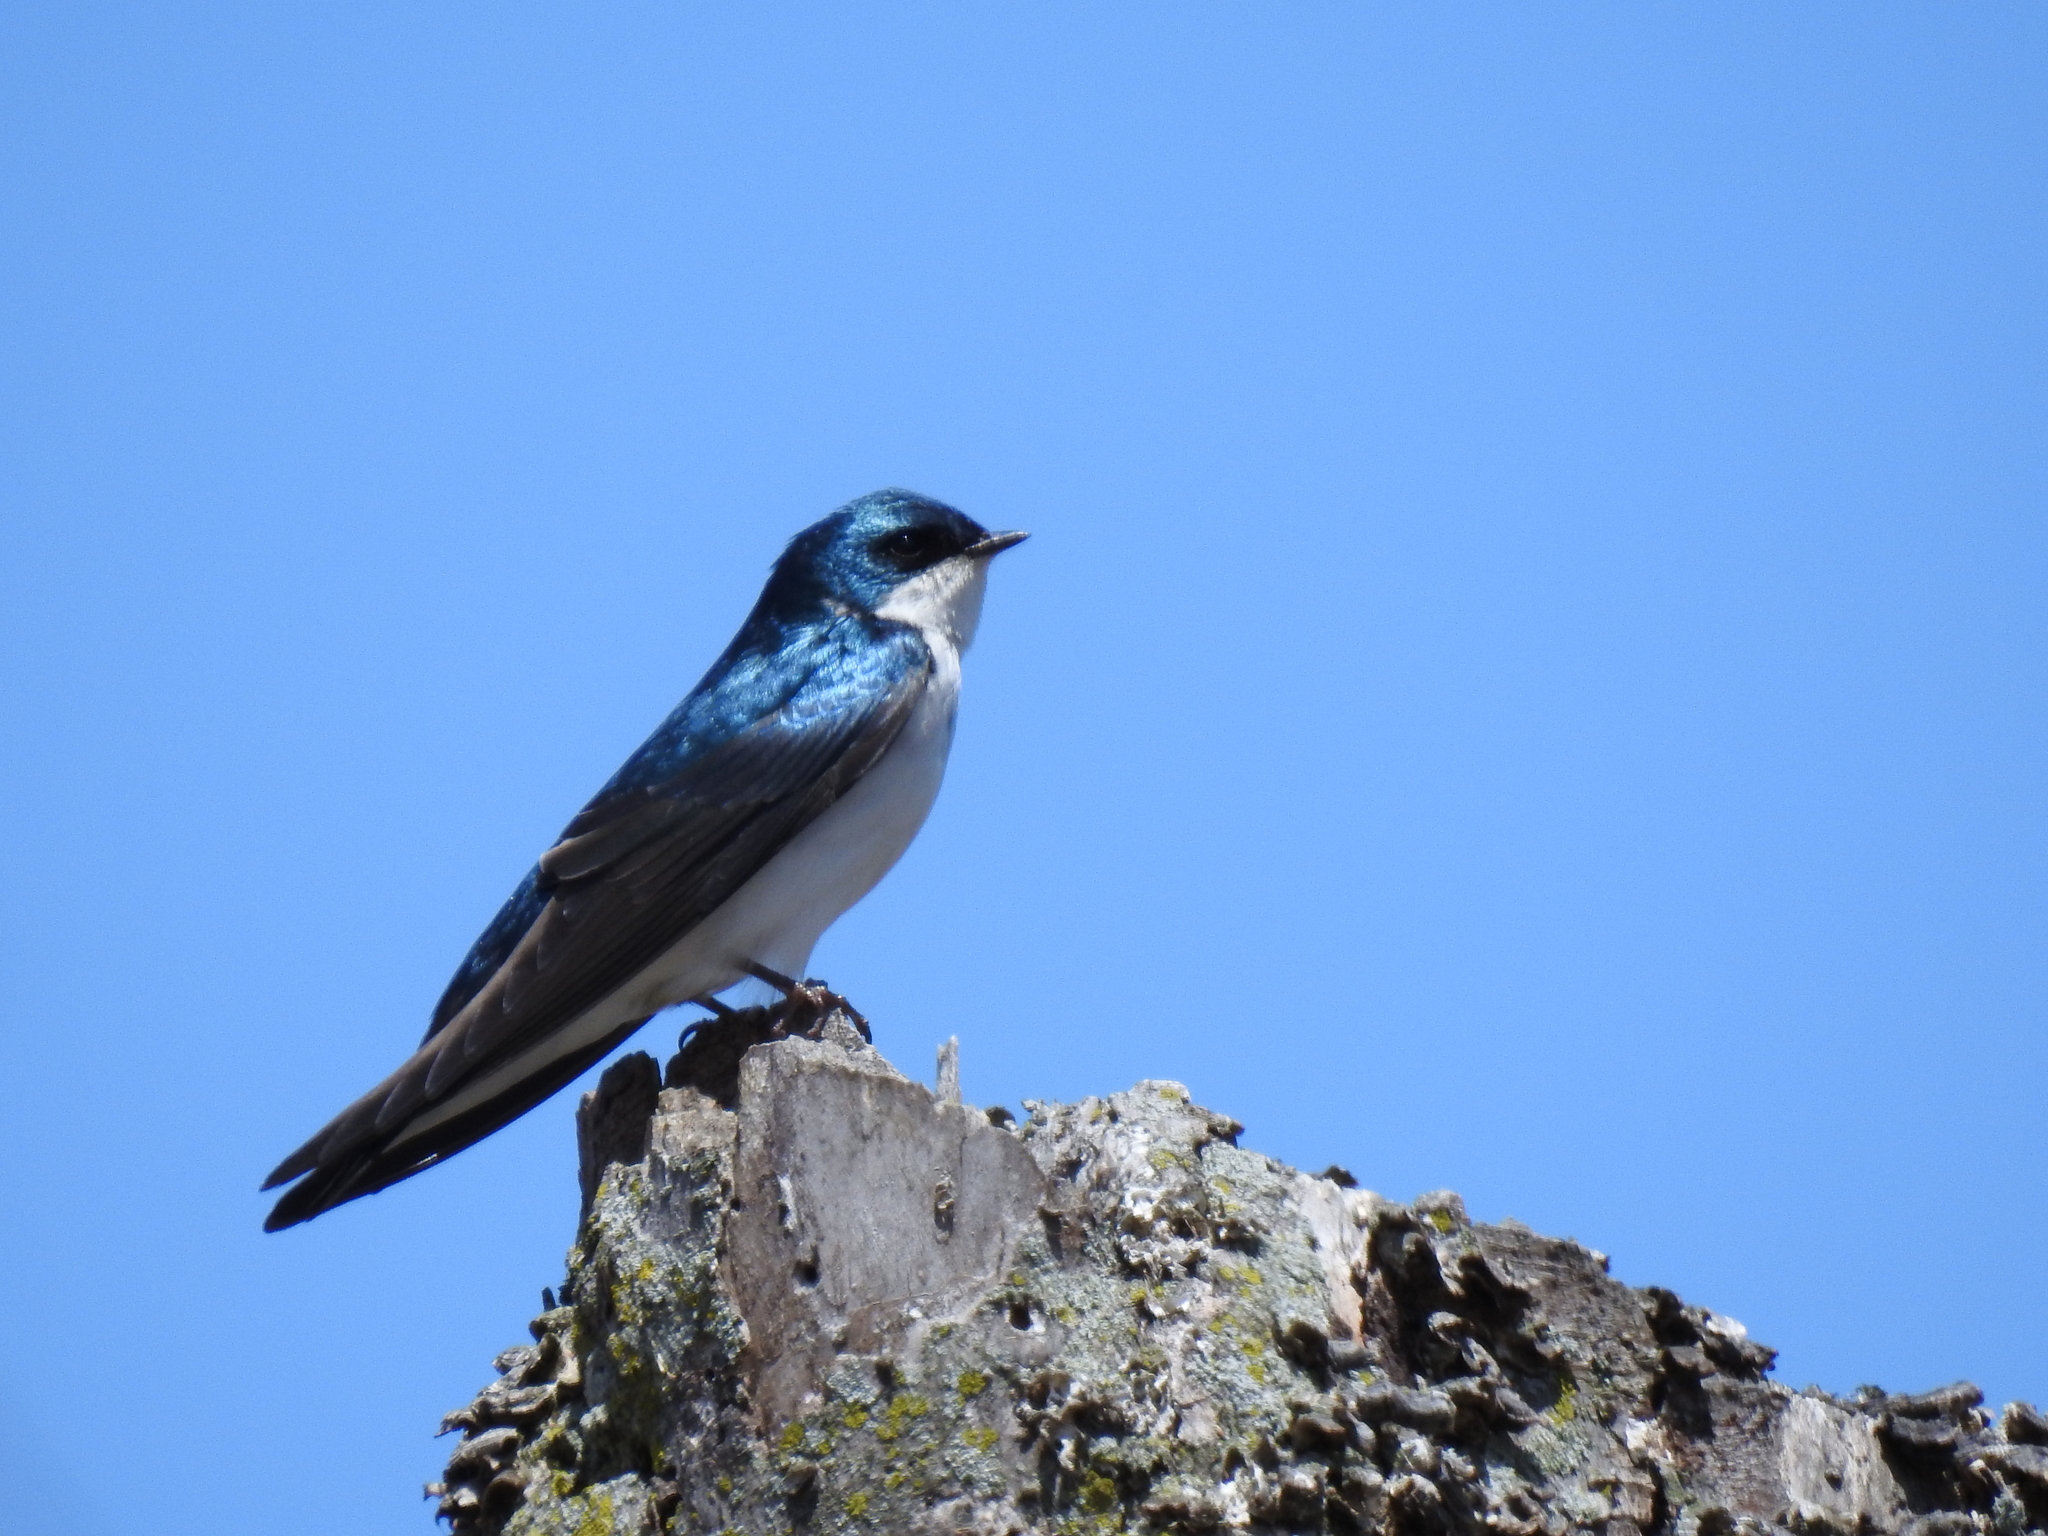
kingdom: Animalia
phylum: Chordata
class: Aves
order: Passeriformes
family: Hirundinidae
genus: Tachycineta
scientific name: Tachycineta bicolor
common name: Tree swallow
